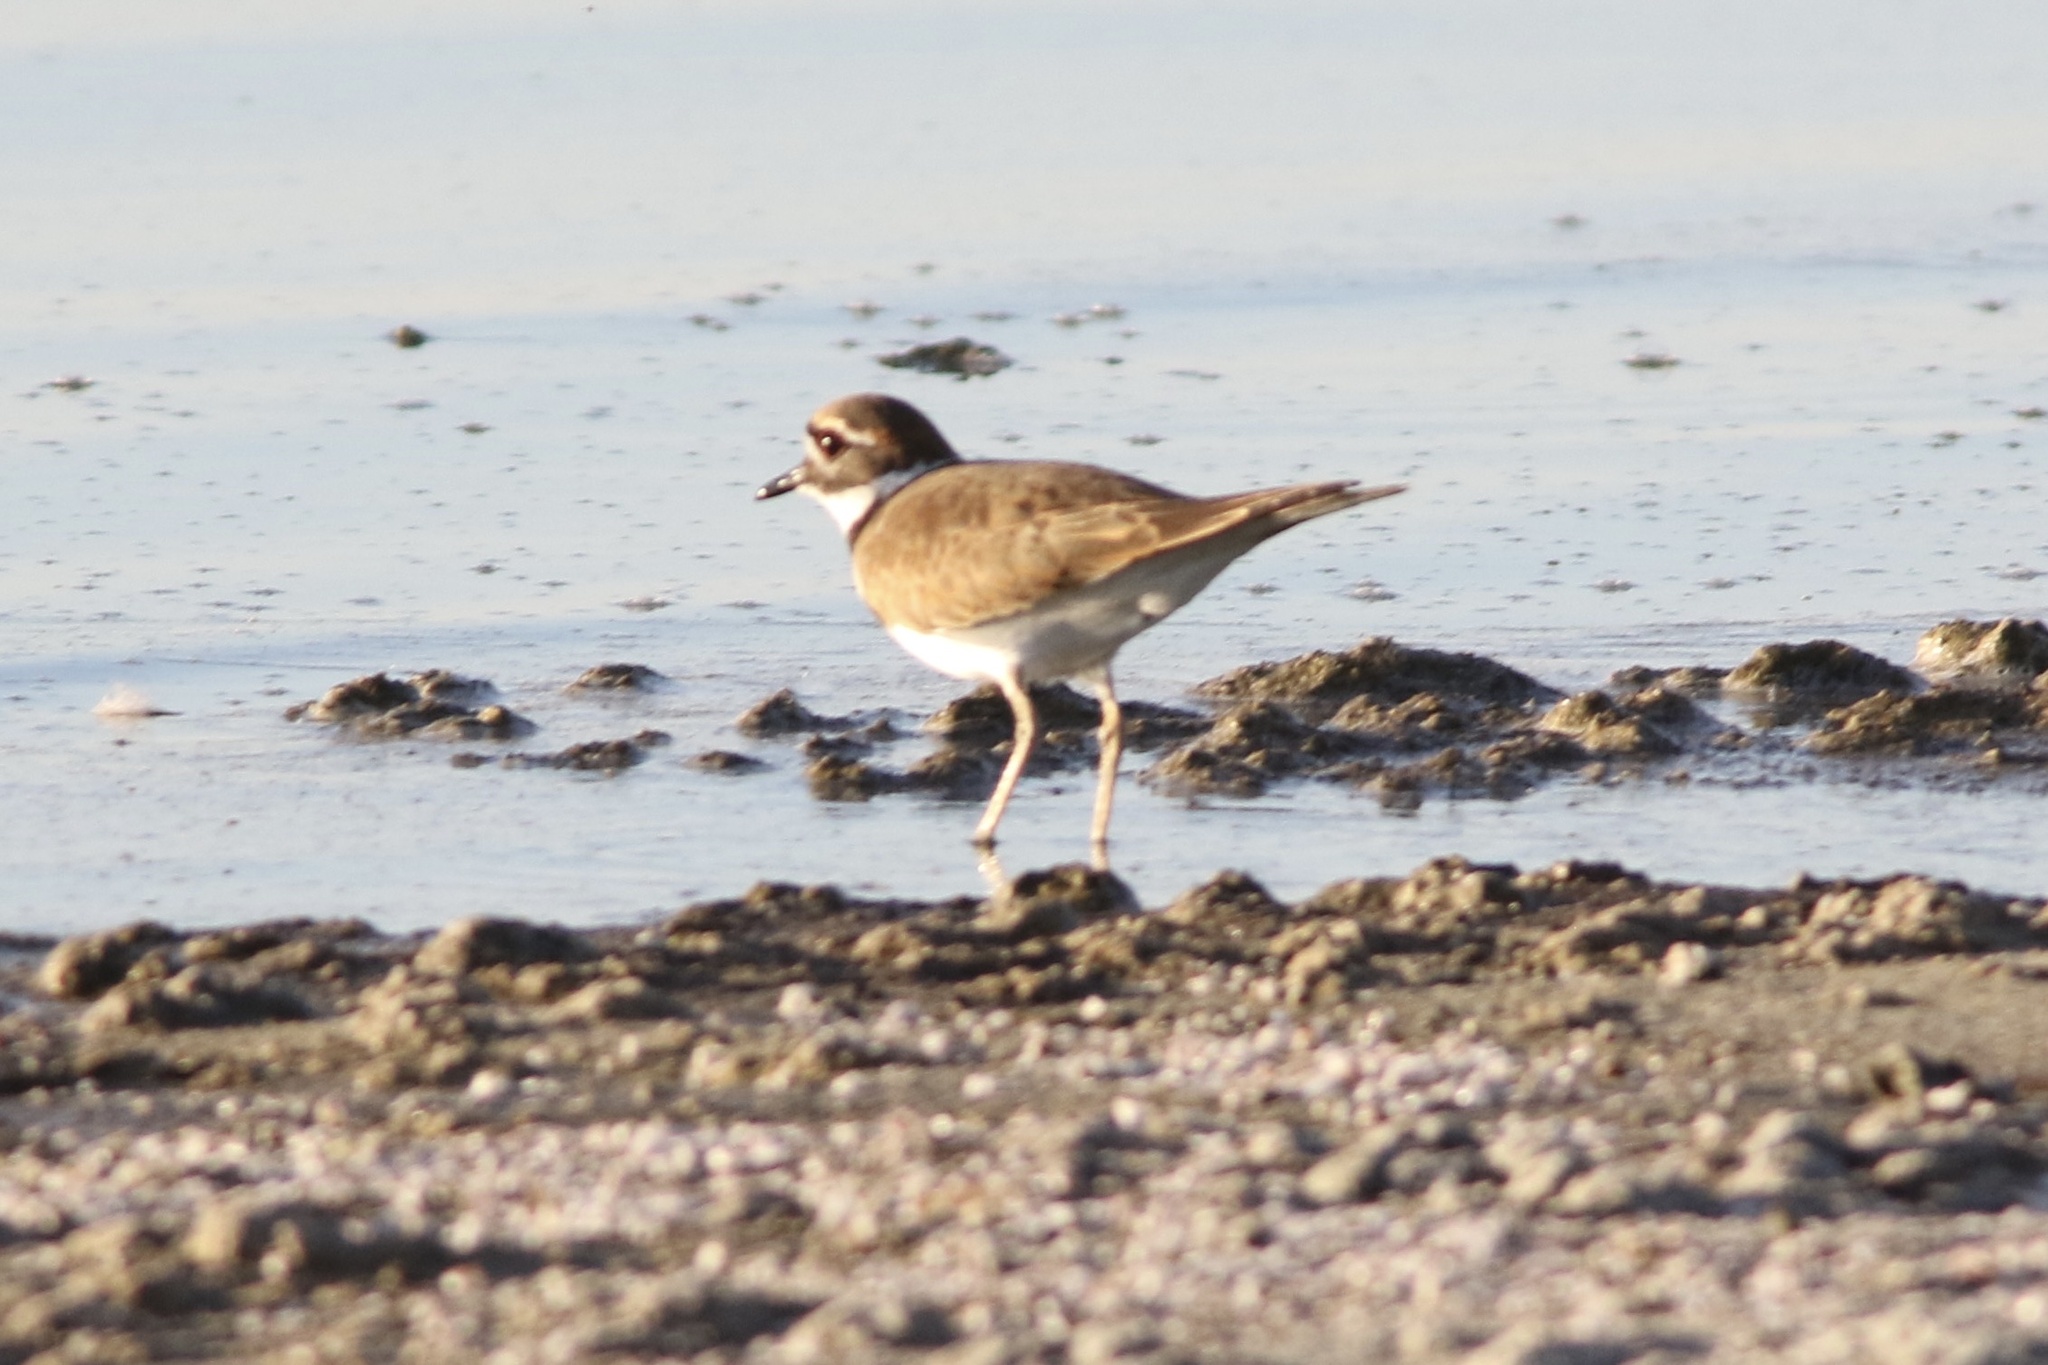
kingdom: Animalia
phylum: Chordata
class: Aves
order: Charadriiformes
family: Charadriidae
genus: Charadrius
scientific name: Charadrius vociferus
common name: Killdeer
